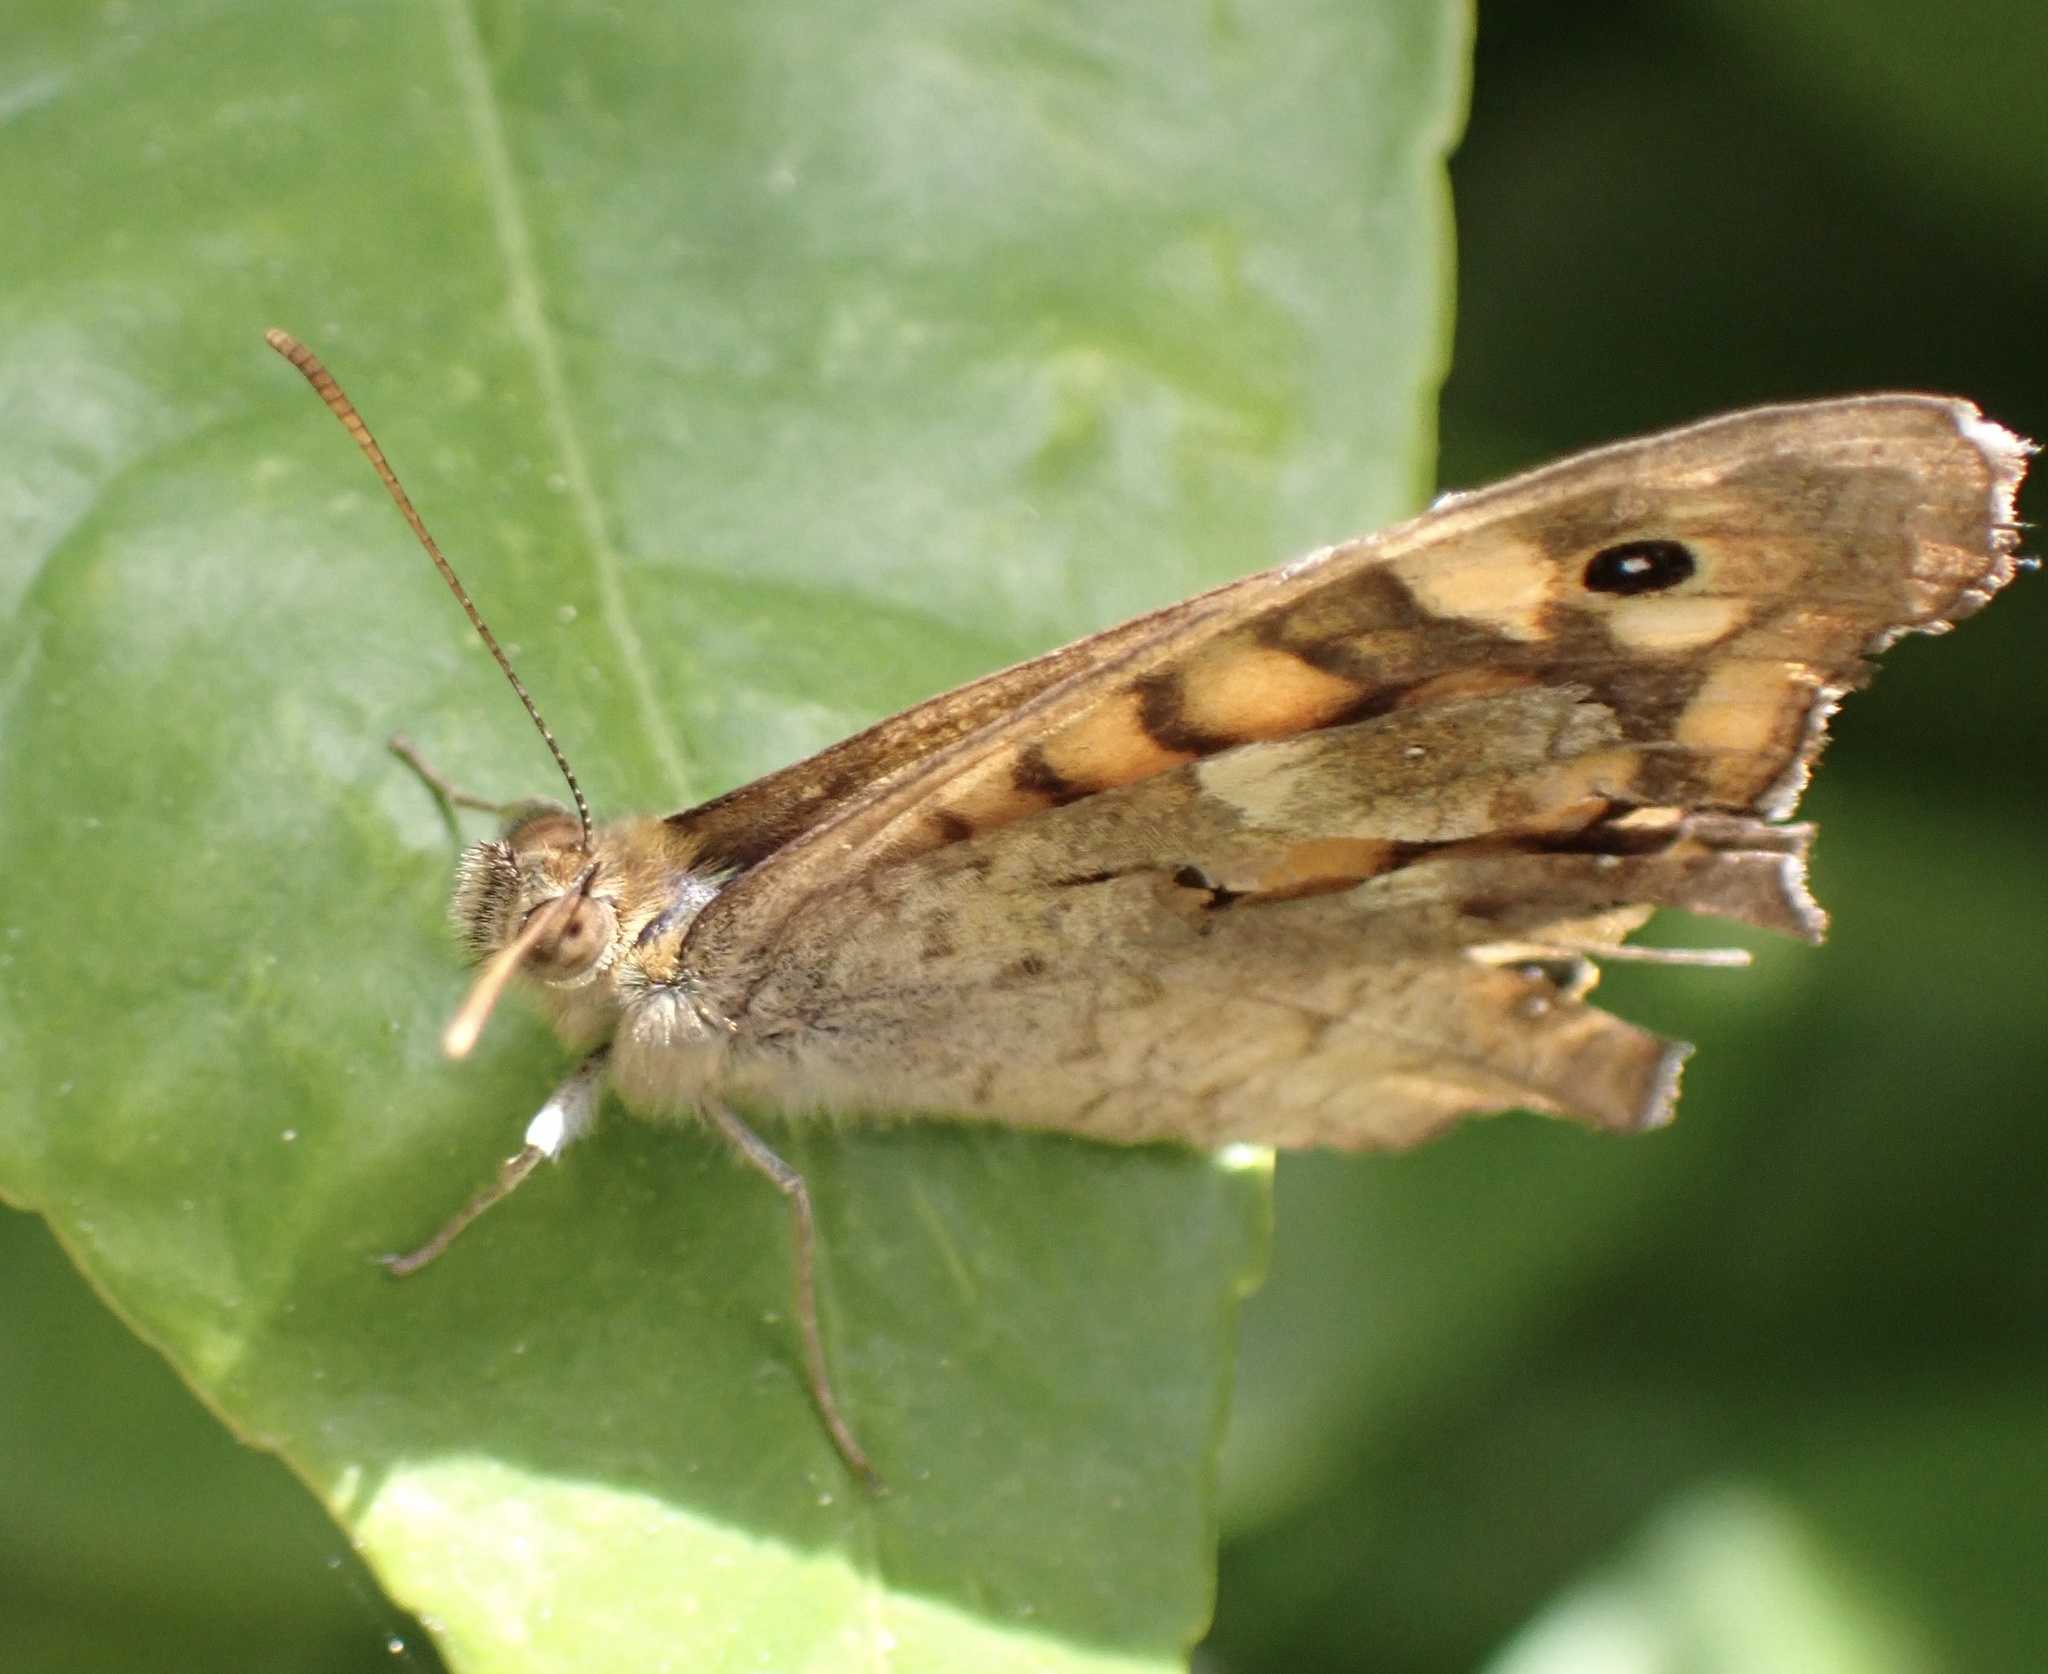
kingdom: Animalia
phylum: Arthropoda
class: Insecta
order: Lepidoptera
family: Nymphalidae
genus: Pararge
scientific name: Pararge aegeria
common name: Speckled wood
